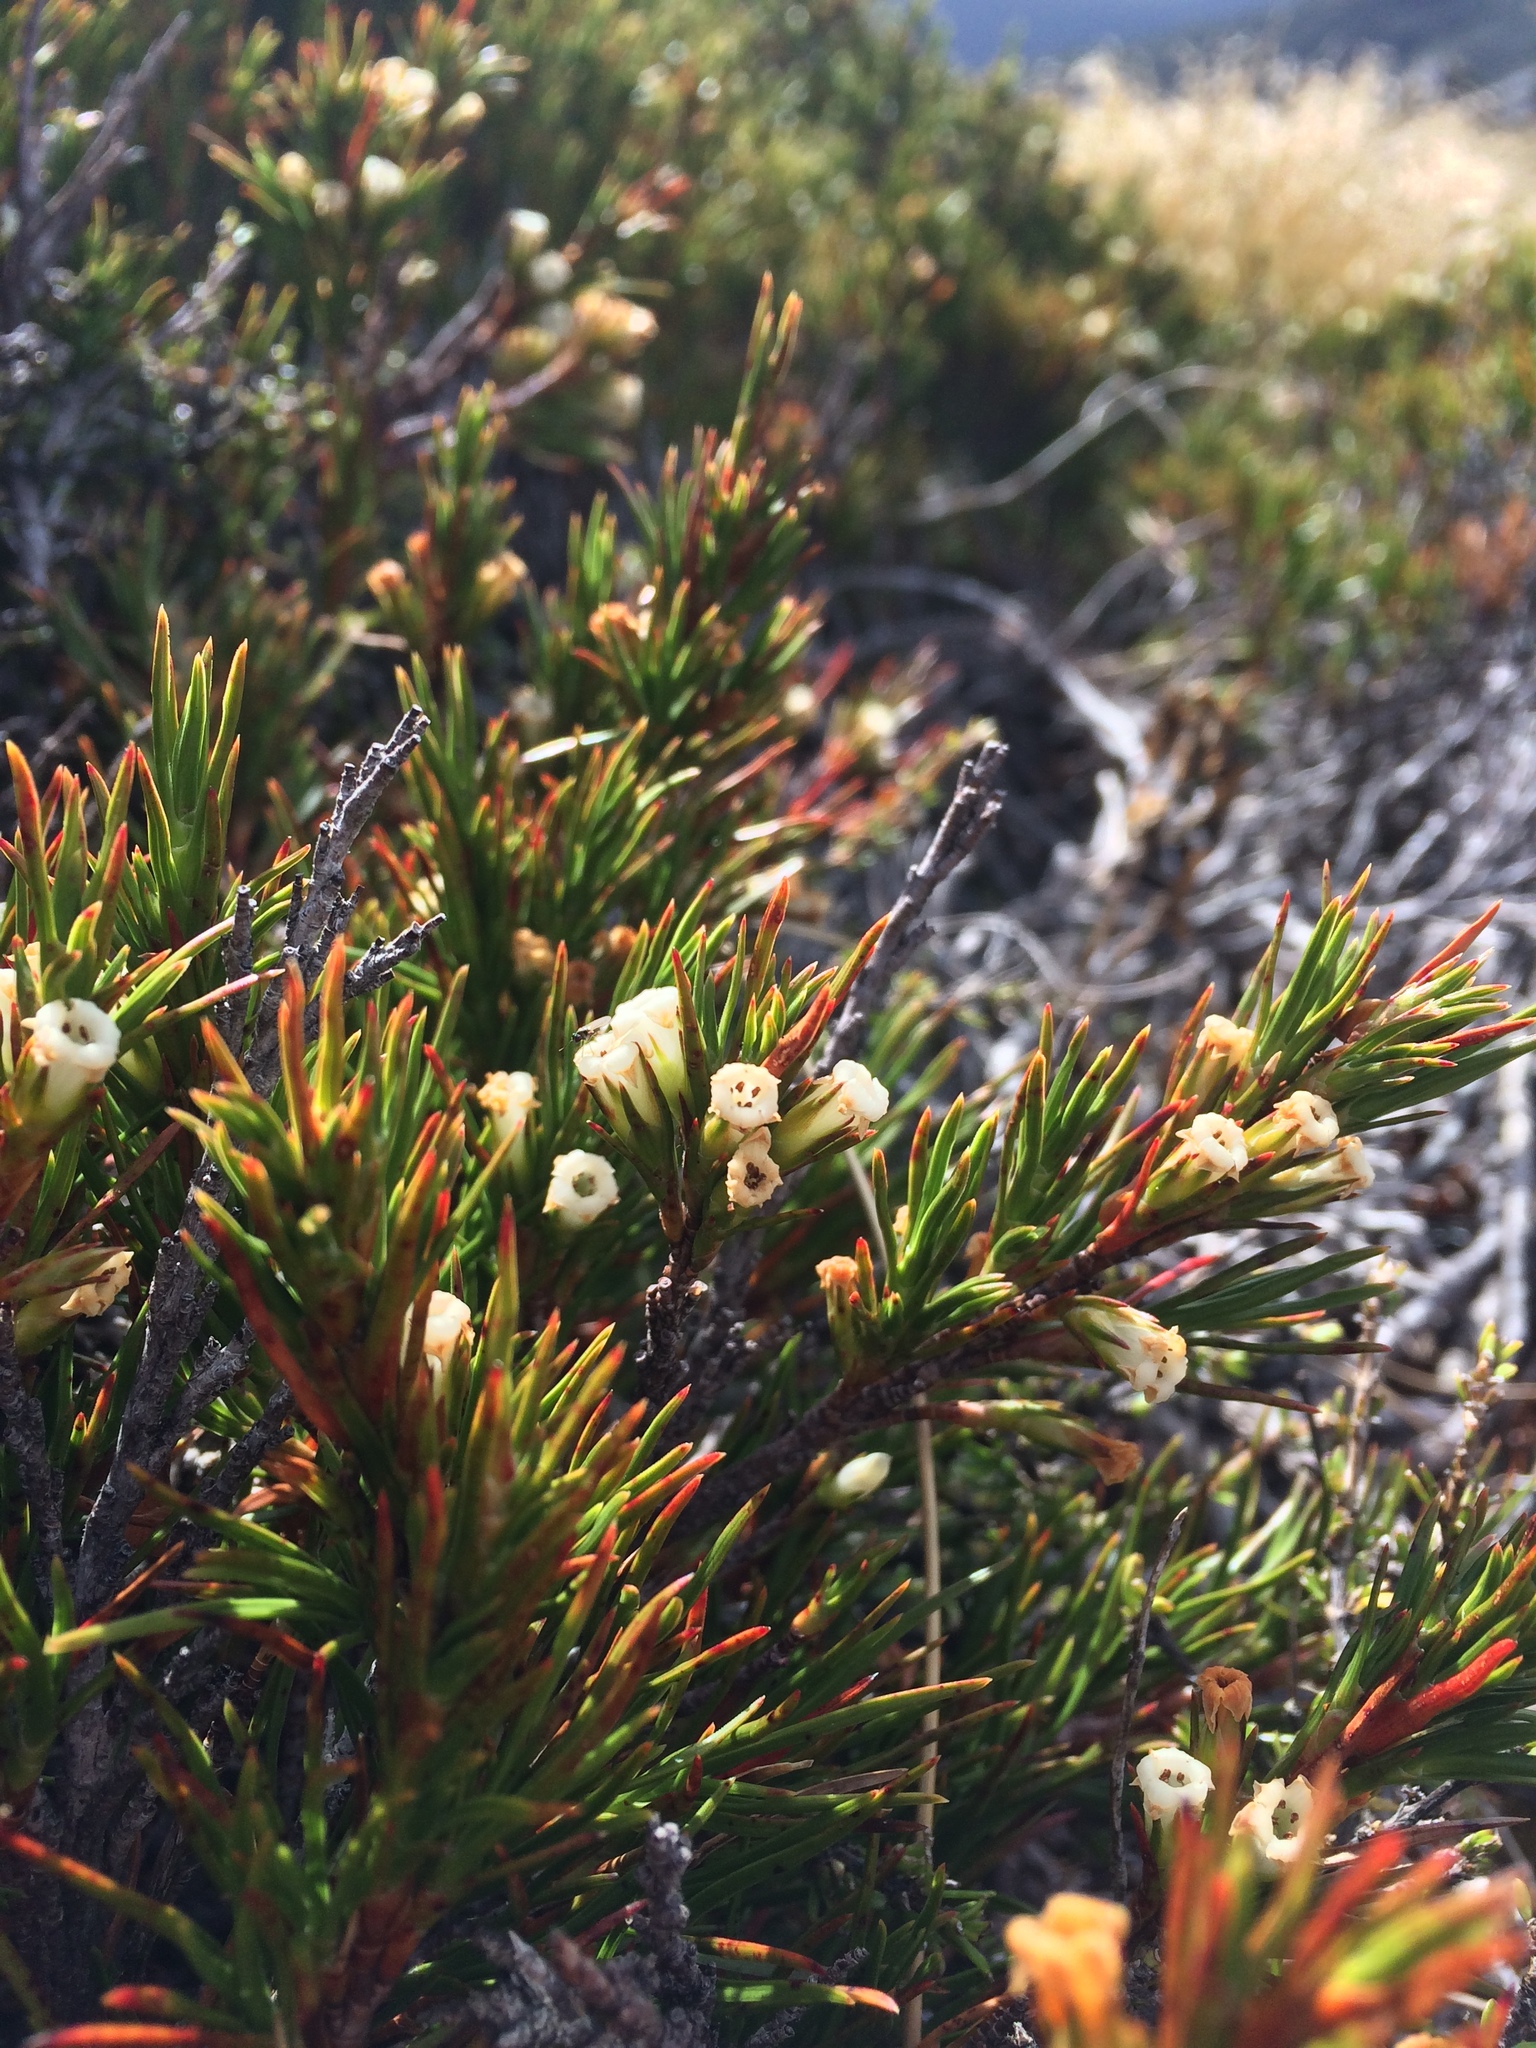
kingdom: Plantae
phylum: Tracheophyta
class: Magnoliopsida
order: Ericales
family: Ericaceae
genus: Dracophyllum
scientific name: Dracophyllum rosmarinifolium
